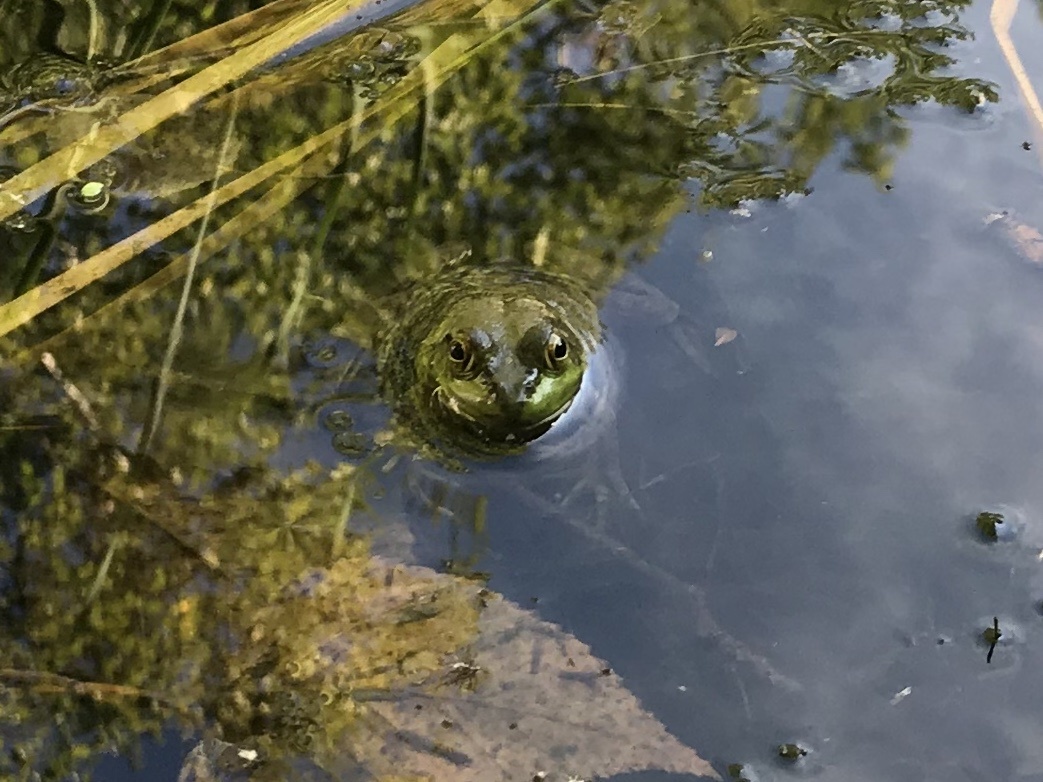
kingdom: Animalia
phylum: Chordata
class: Amphibia
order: Anura
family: Ranidae
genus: Lithobates
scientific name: Lithobates catesbeianus
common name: American bullfrog
